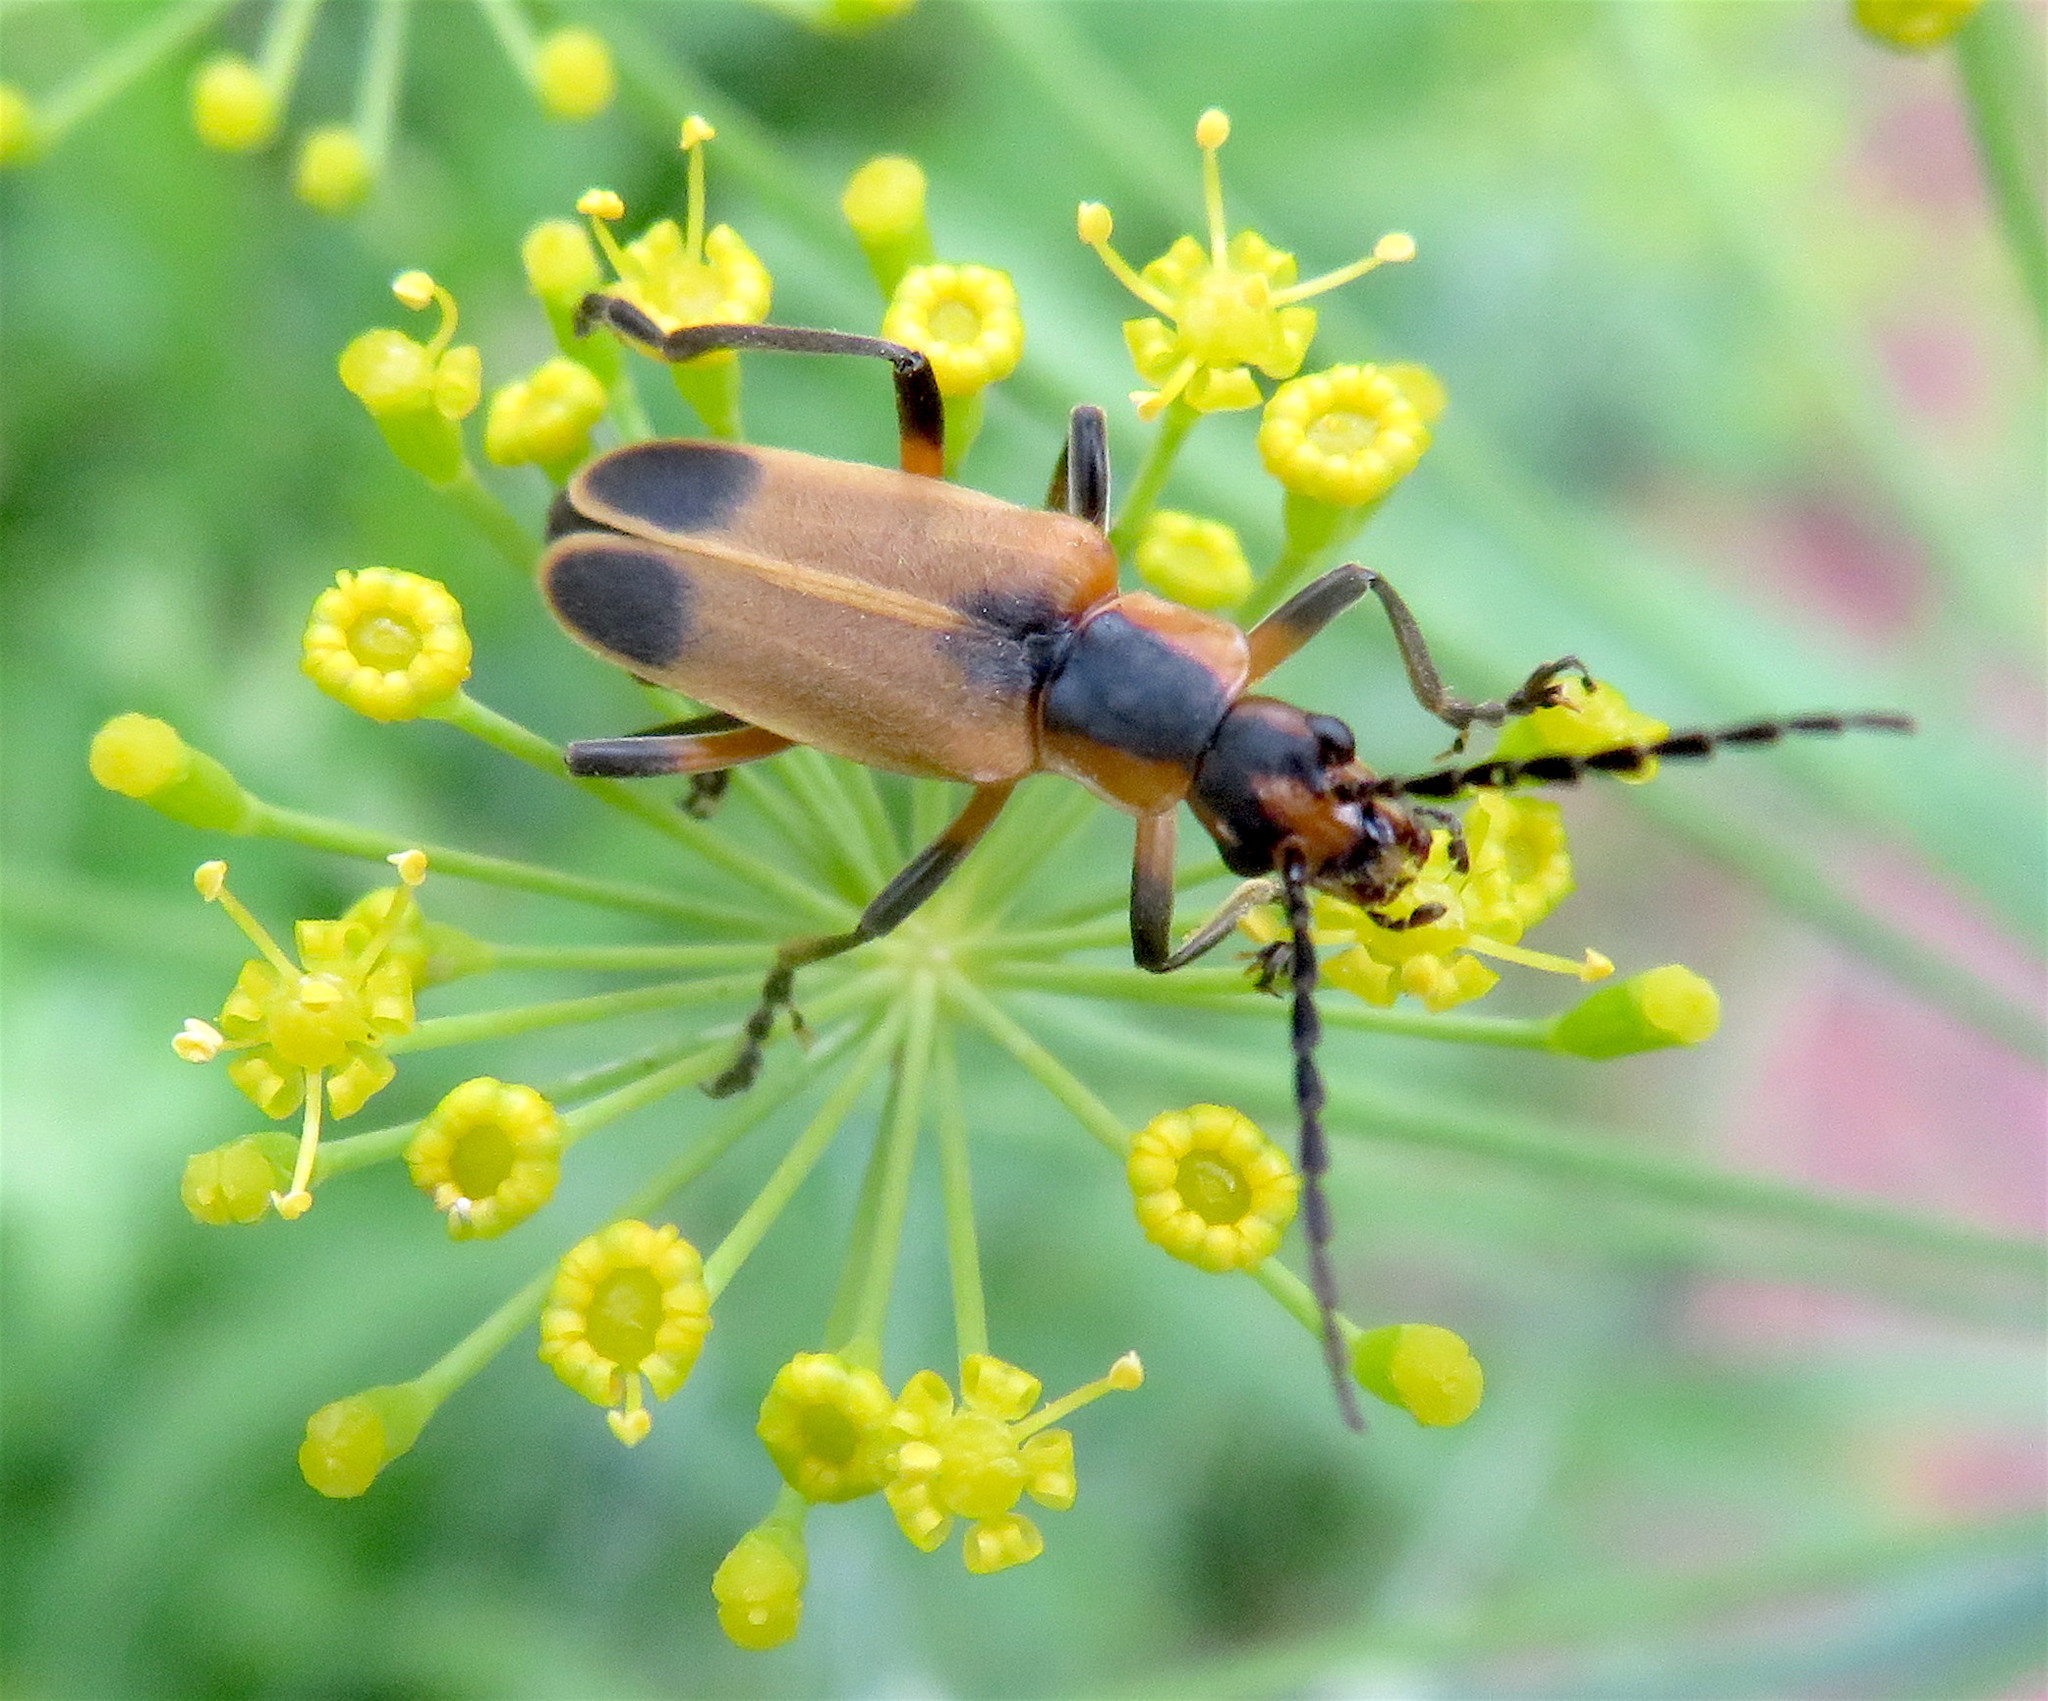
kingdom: Animalia
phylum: Arthropoda
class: Insecta
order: Coleoptera
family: Cantharidae
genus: Chauliognathus
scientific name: Chauliognathus marginatus
